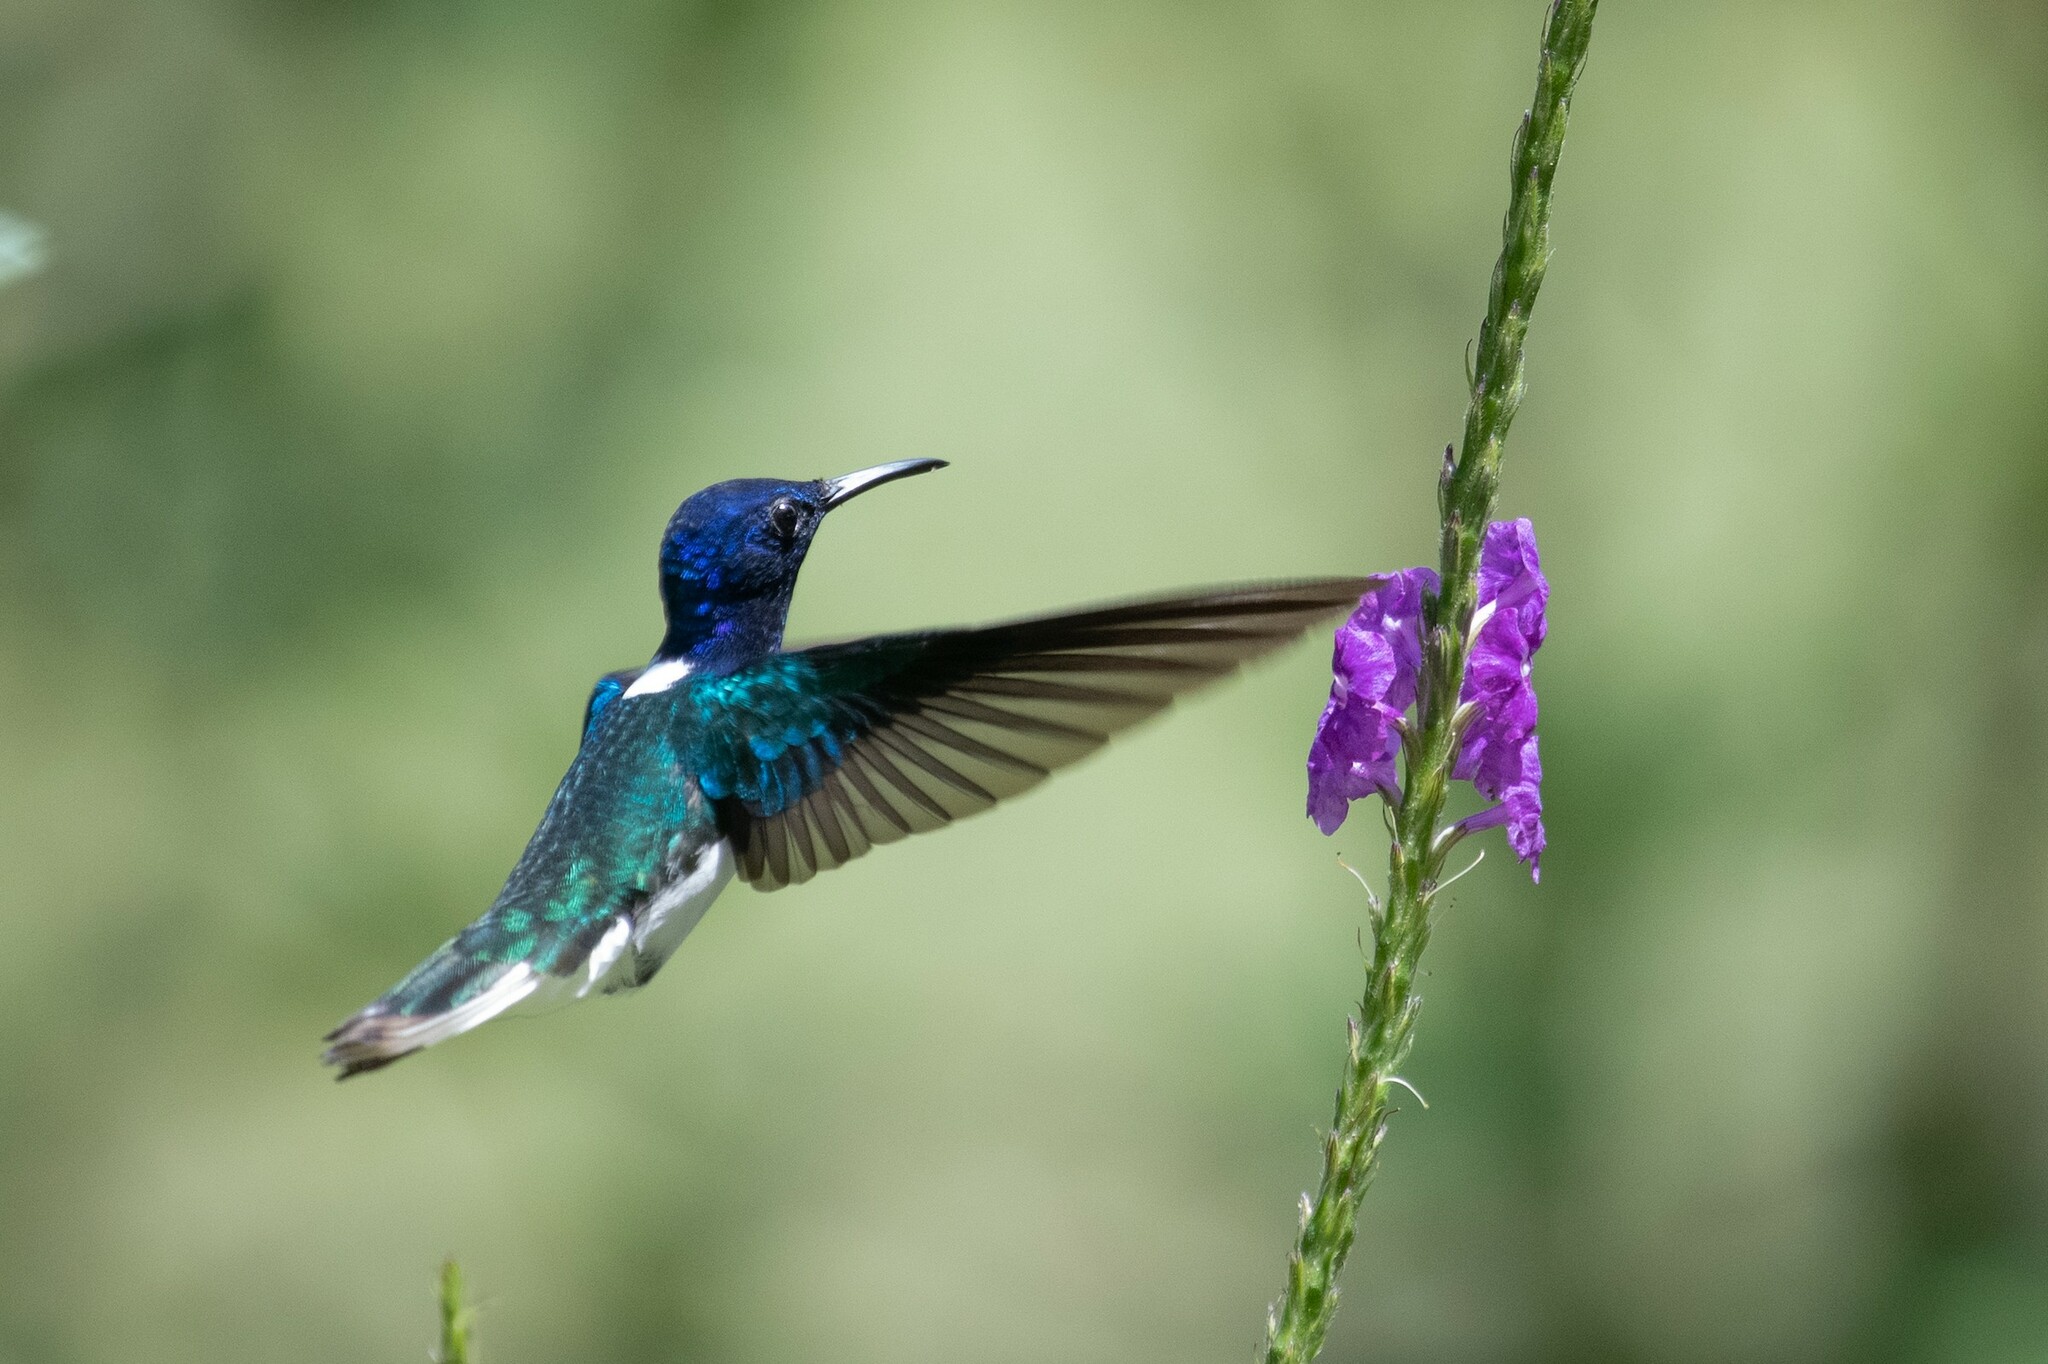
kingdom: Animalia
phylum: Chordata
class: Aves
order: Apodiformes
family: Trochilidae
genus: Florisuga
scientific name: Florisuga mellivora
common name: White-necked jacobin
